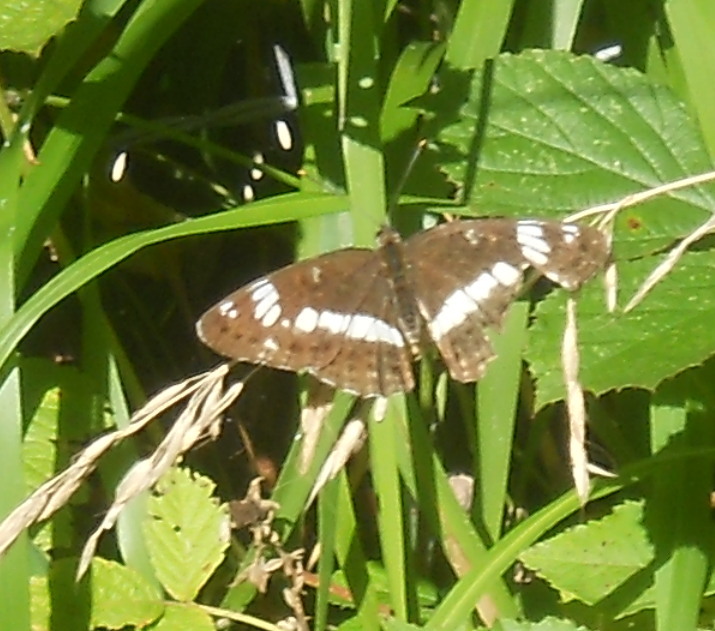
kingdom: Animalia
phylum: Arthropoda
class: Insecta
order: Lepidoptera
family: Nymphalidae
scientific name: Nymphalidae
